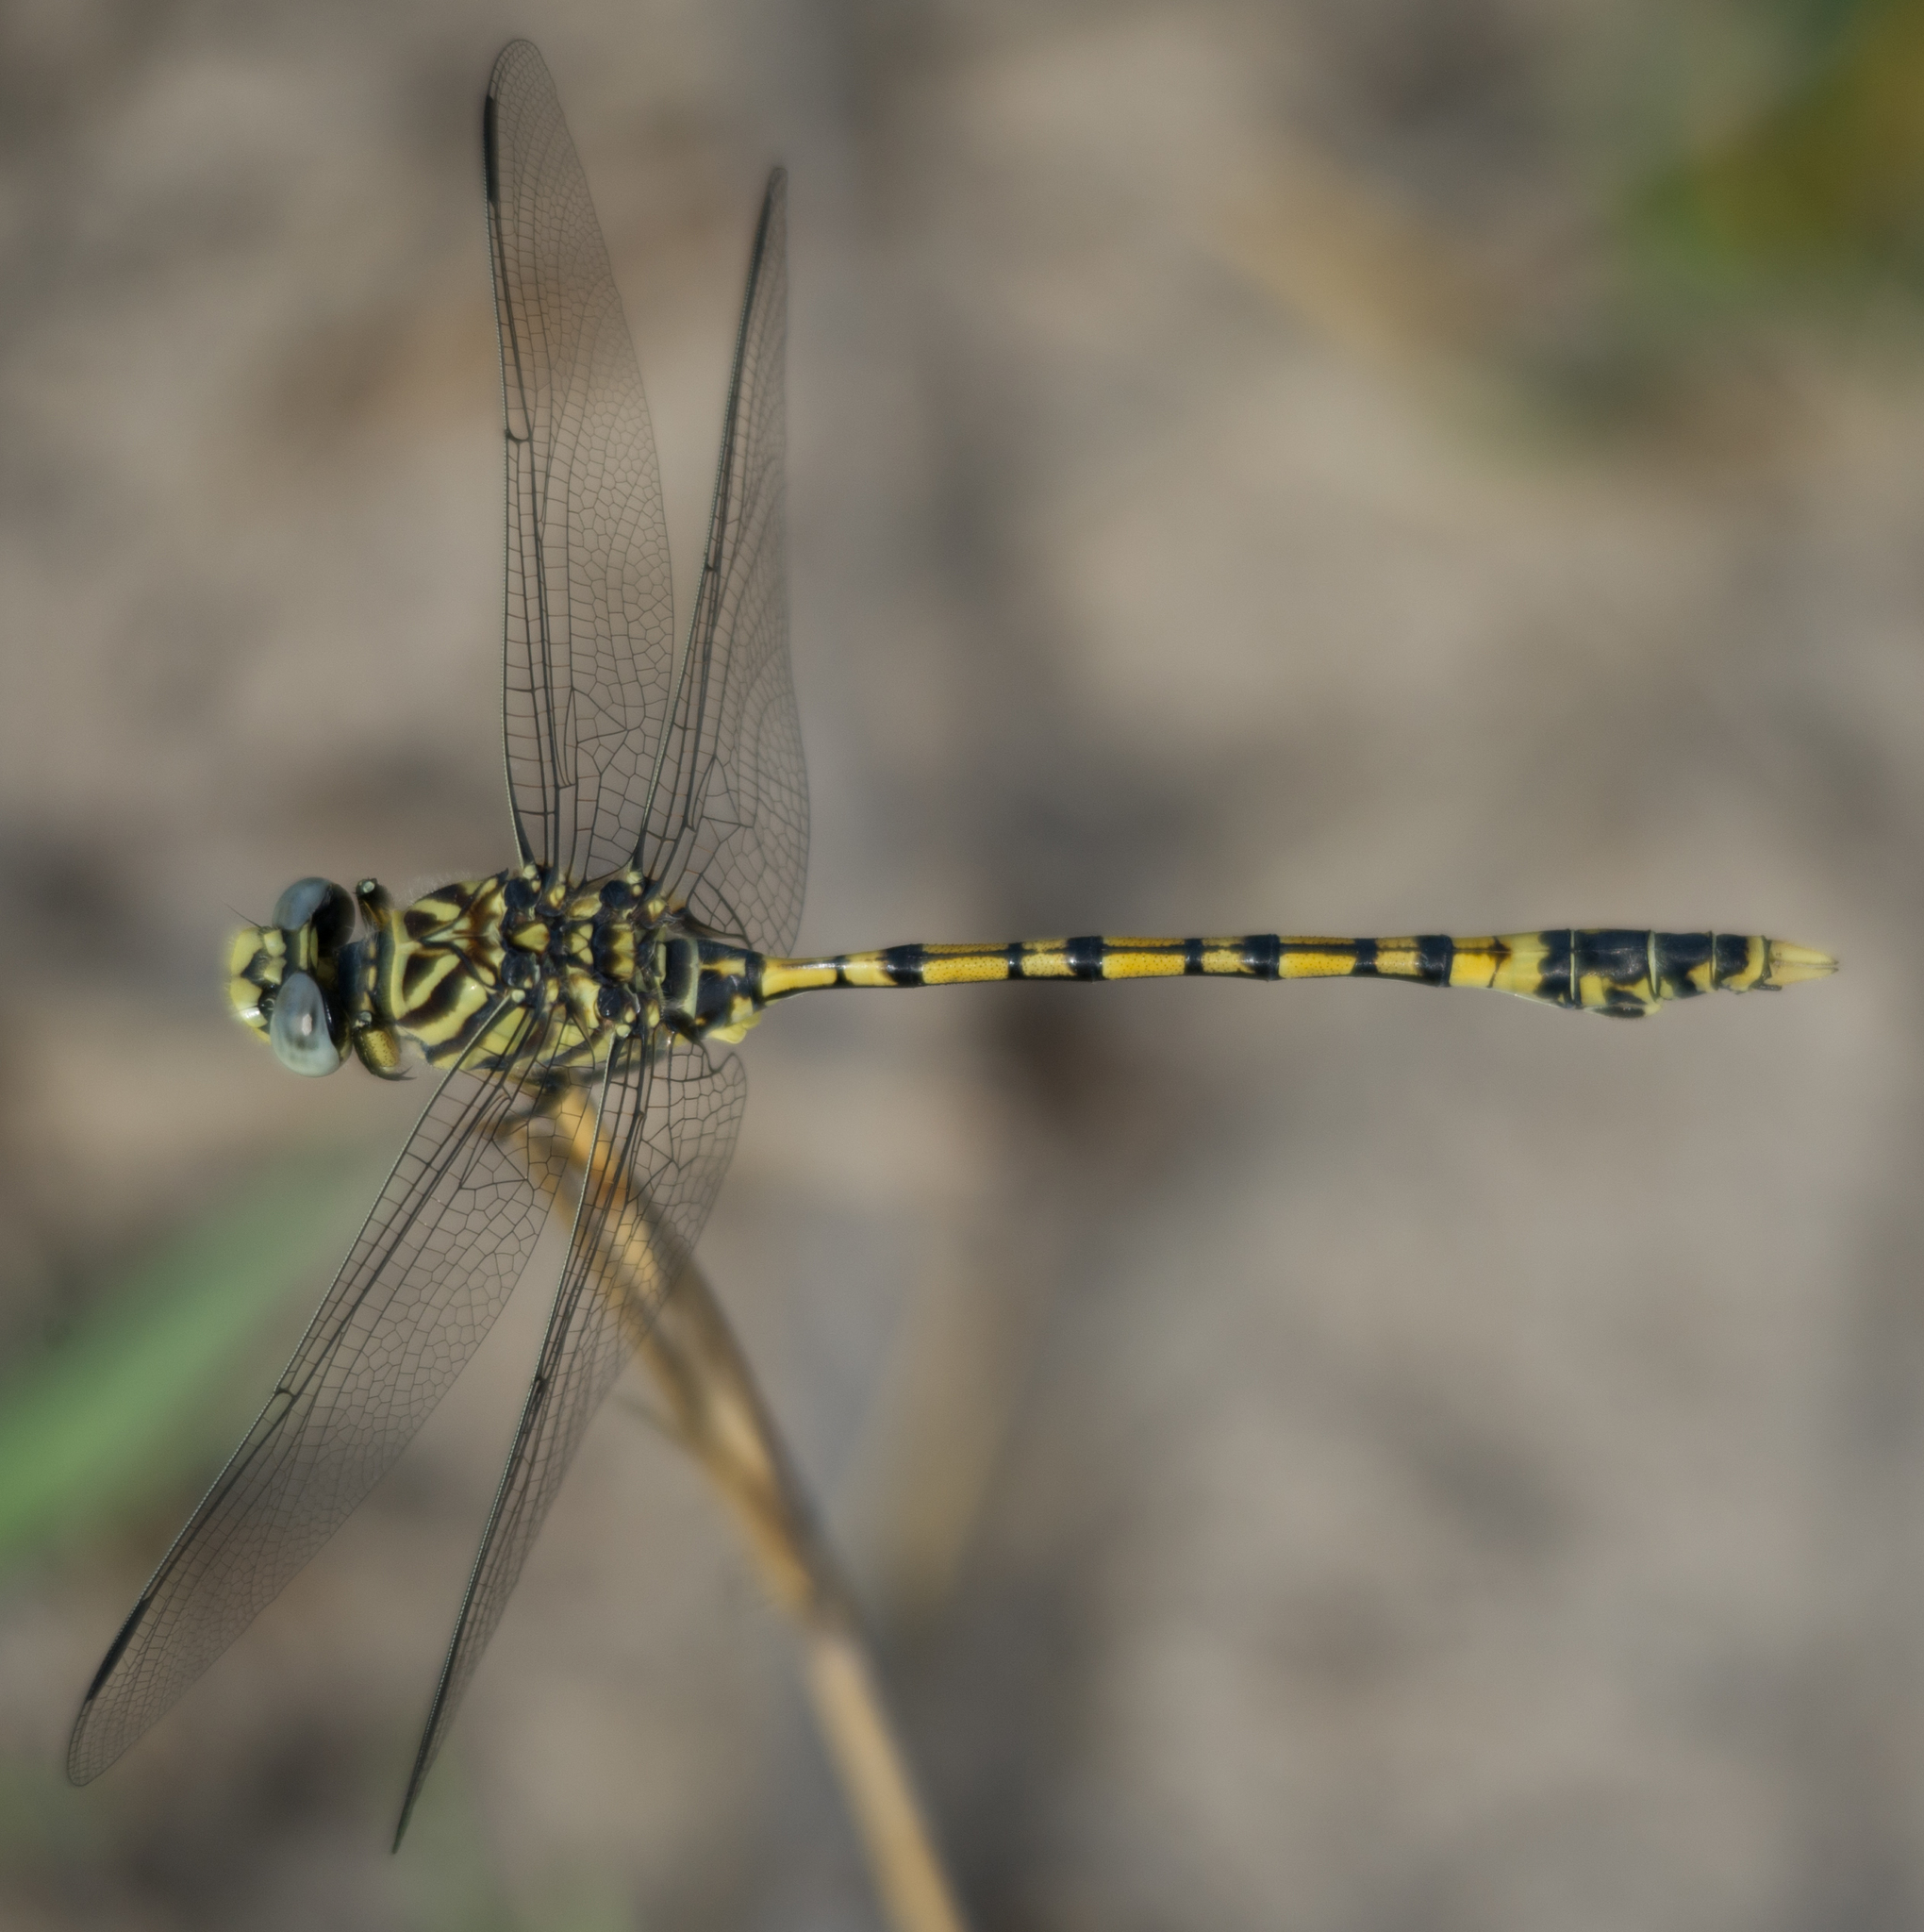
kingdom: Animalia
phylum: Arthropoda
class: Insecta
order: Odonata
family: Gomphidae
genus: Ictinogomphus
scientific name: Ictinogomphus dundoensis
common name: Swamp tigertail
